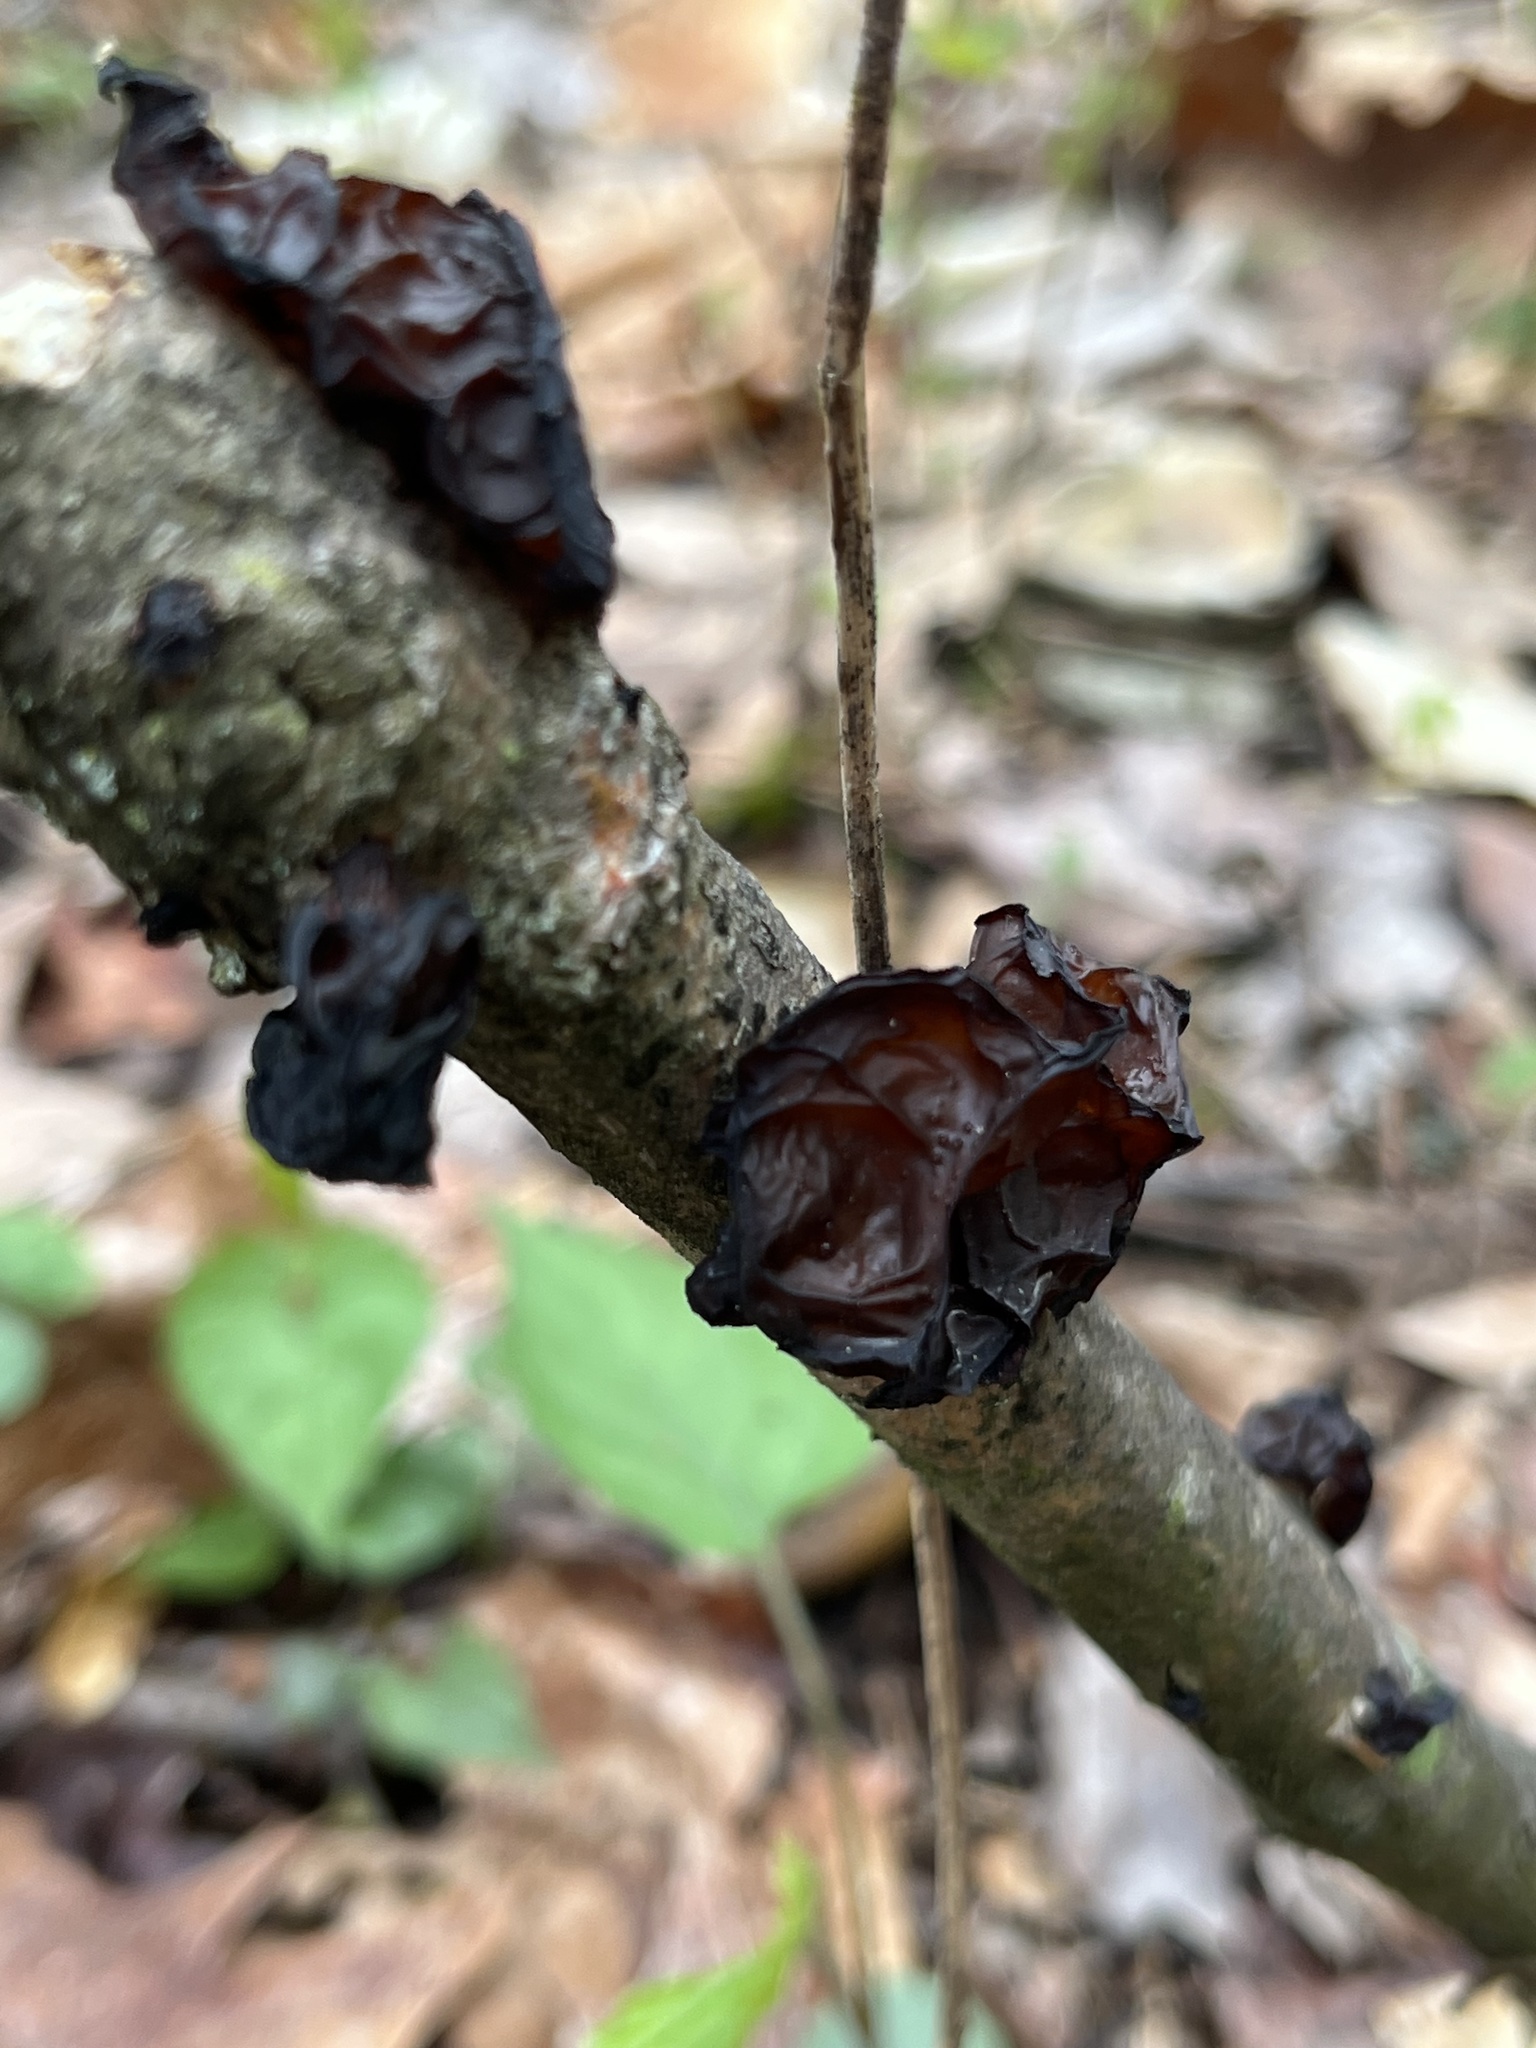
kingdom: Fungi
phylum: Basidiomycota
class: Agaricomycetes
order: Auriculariales
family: Auriculariaceae
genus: Exidia
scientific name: Exidia
